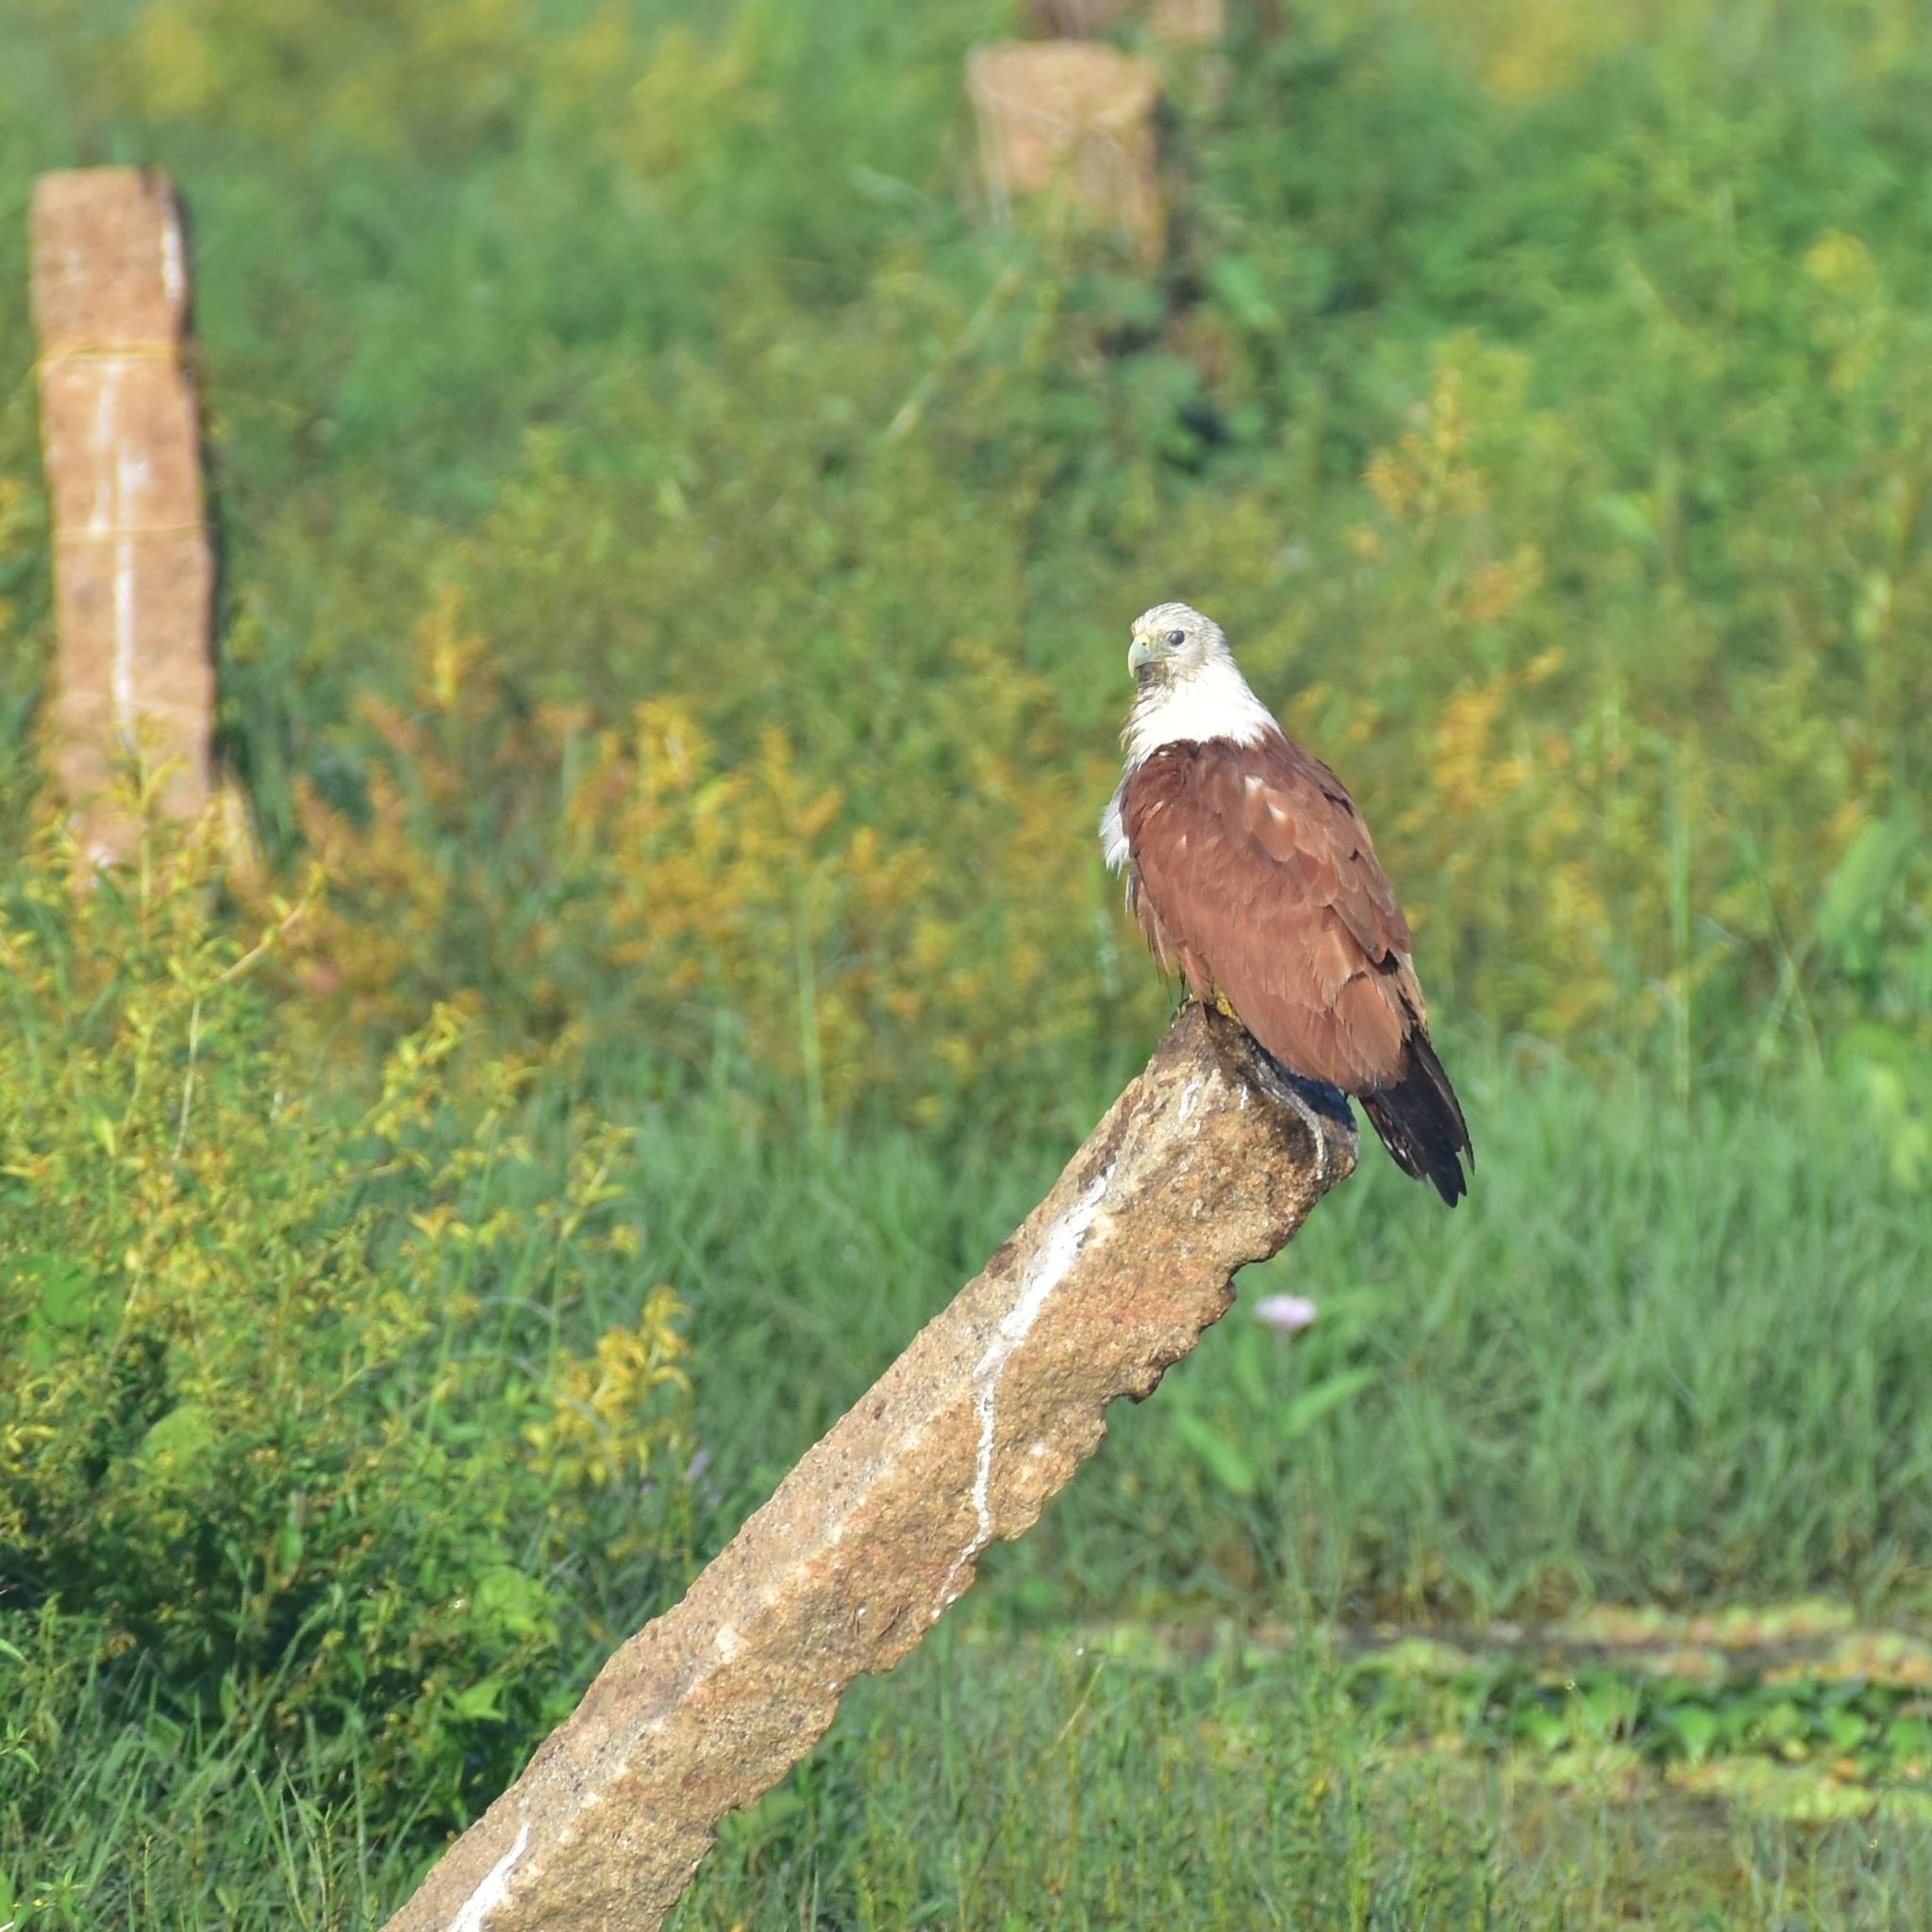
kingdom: Animalia
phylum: Chordata
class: Aves
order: Accipitriformes
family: Accipitridae
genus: Haliastur
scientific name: Haliastur indus
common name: Brahminy kite
